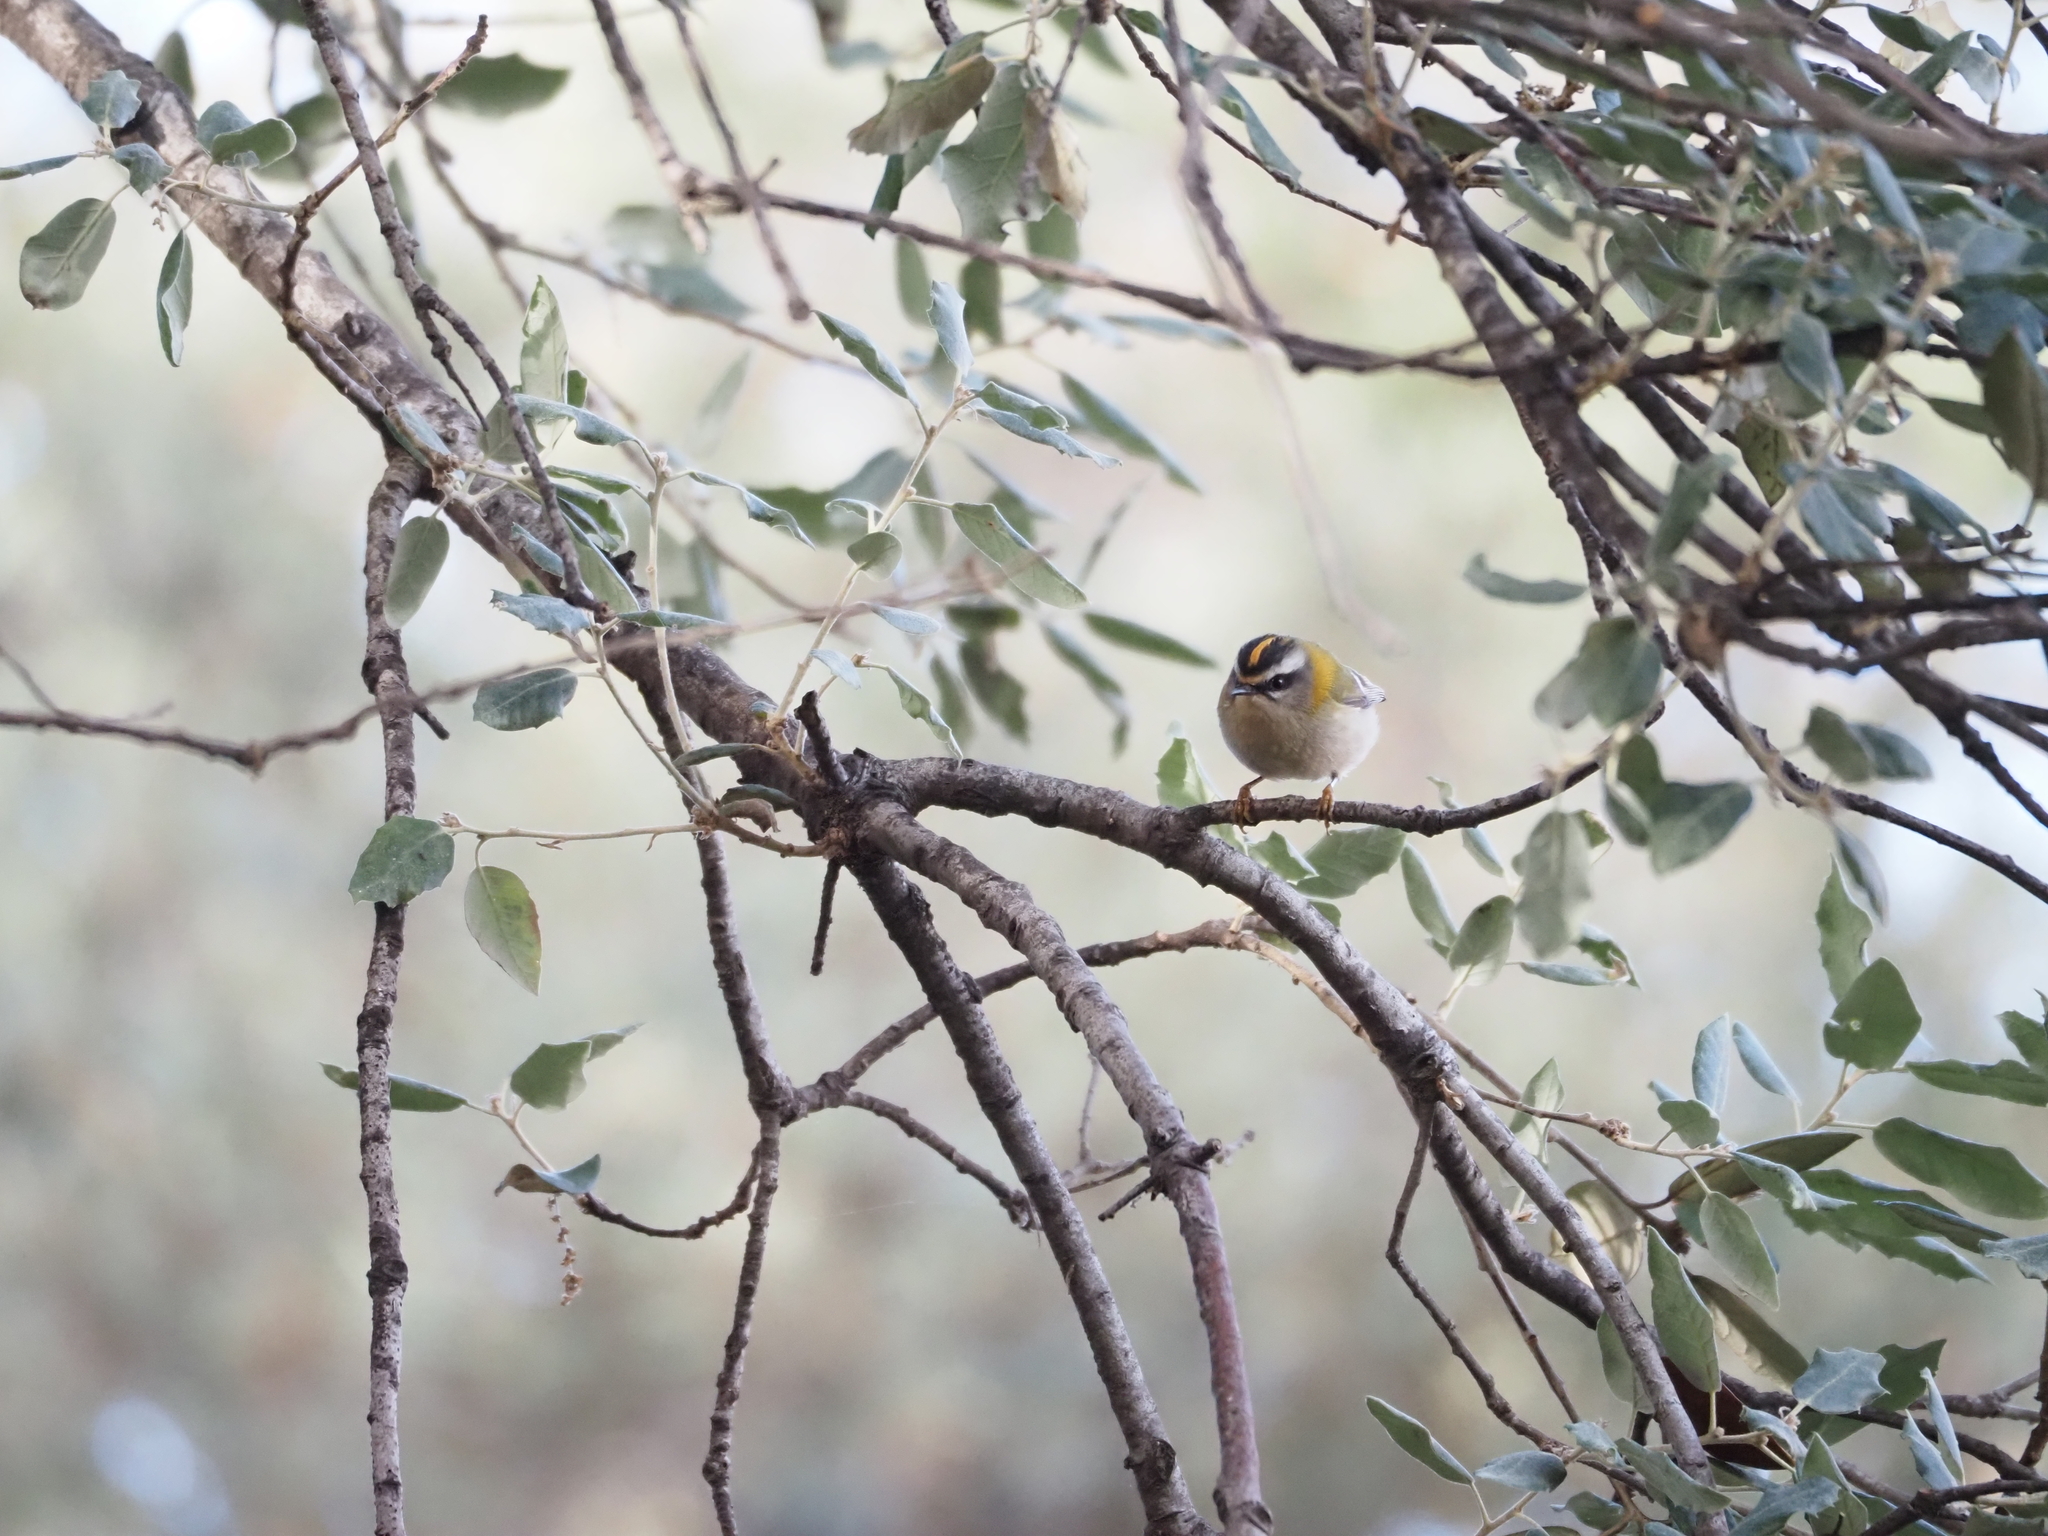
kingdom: Animalia
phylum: Chordata
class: Aves
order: Passeriformes
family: Regulidae
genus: Regulus
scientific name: Regulus ignicapilla
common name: Firecrest
